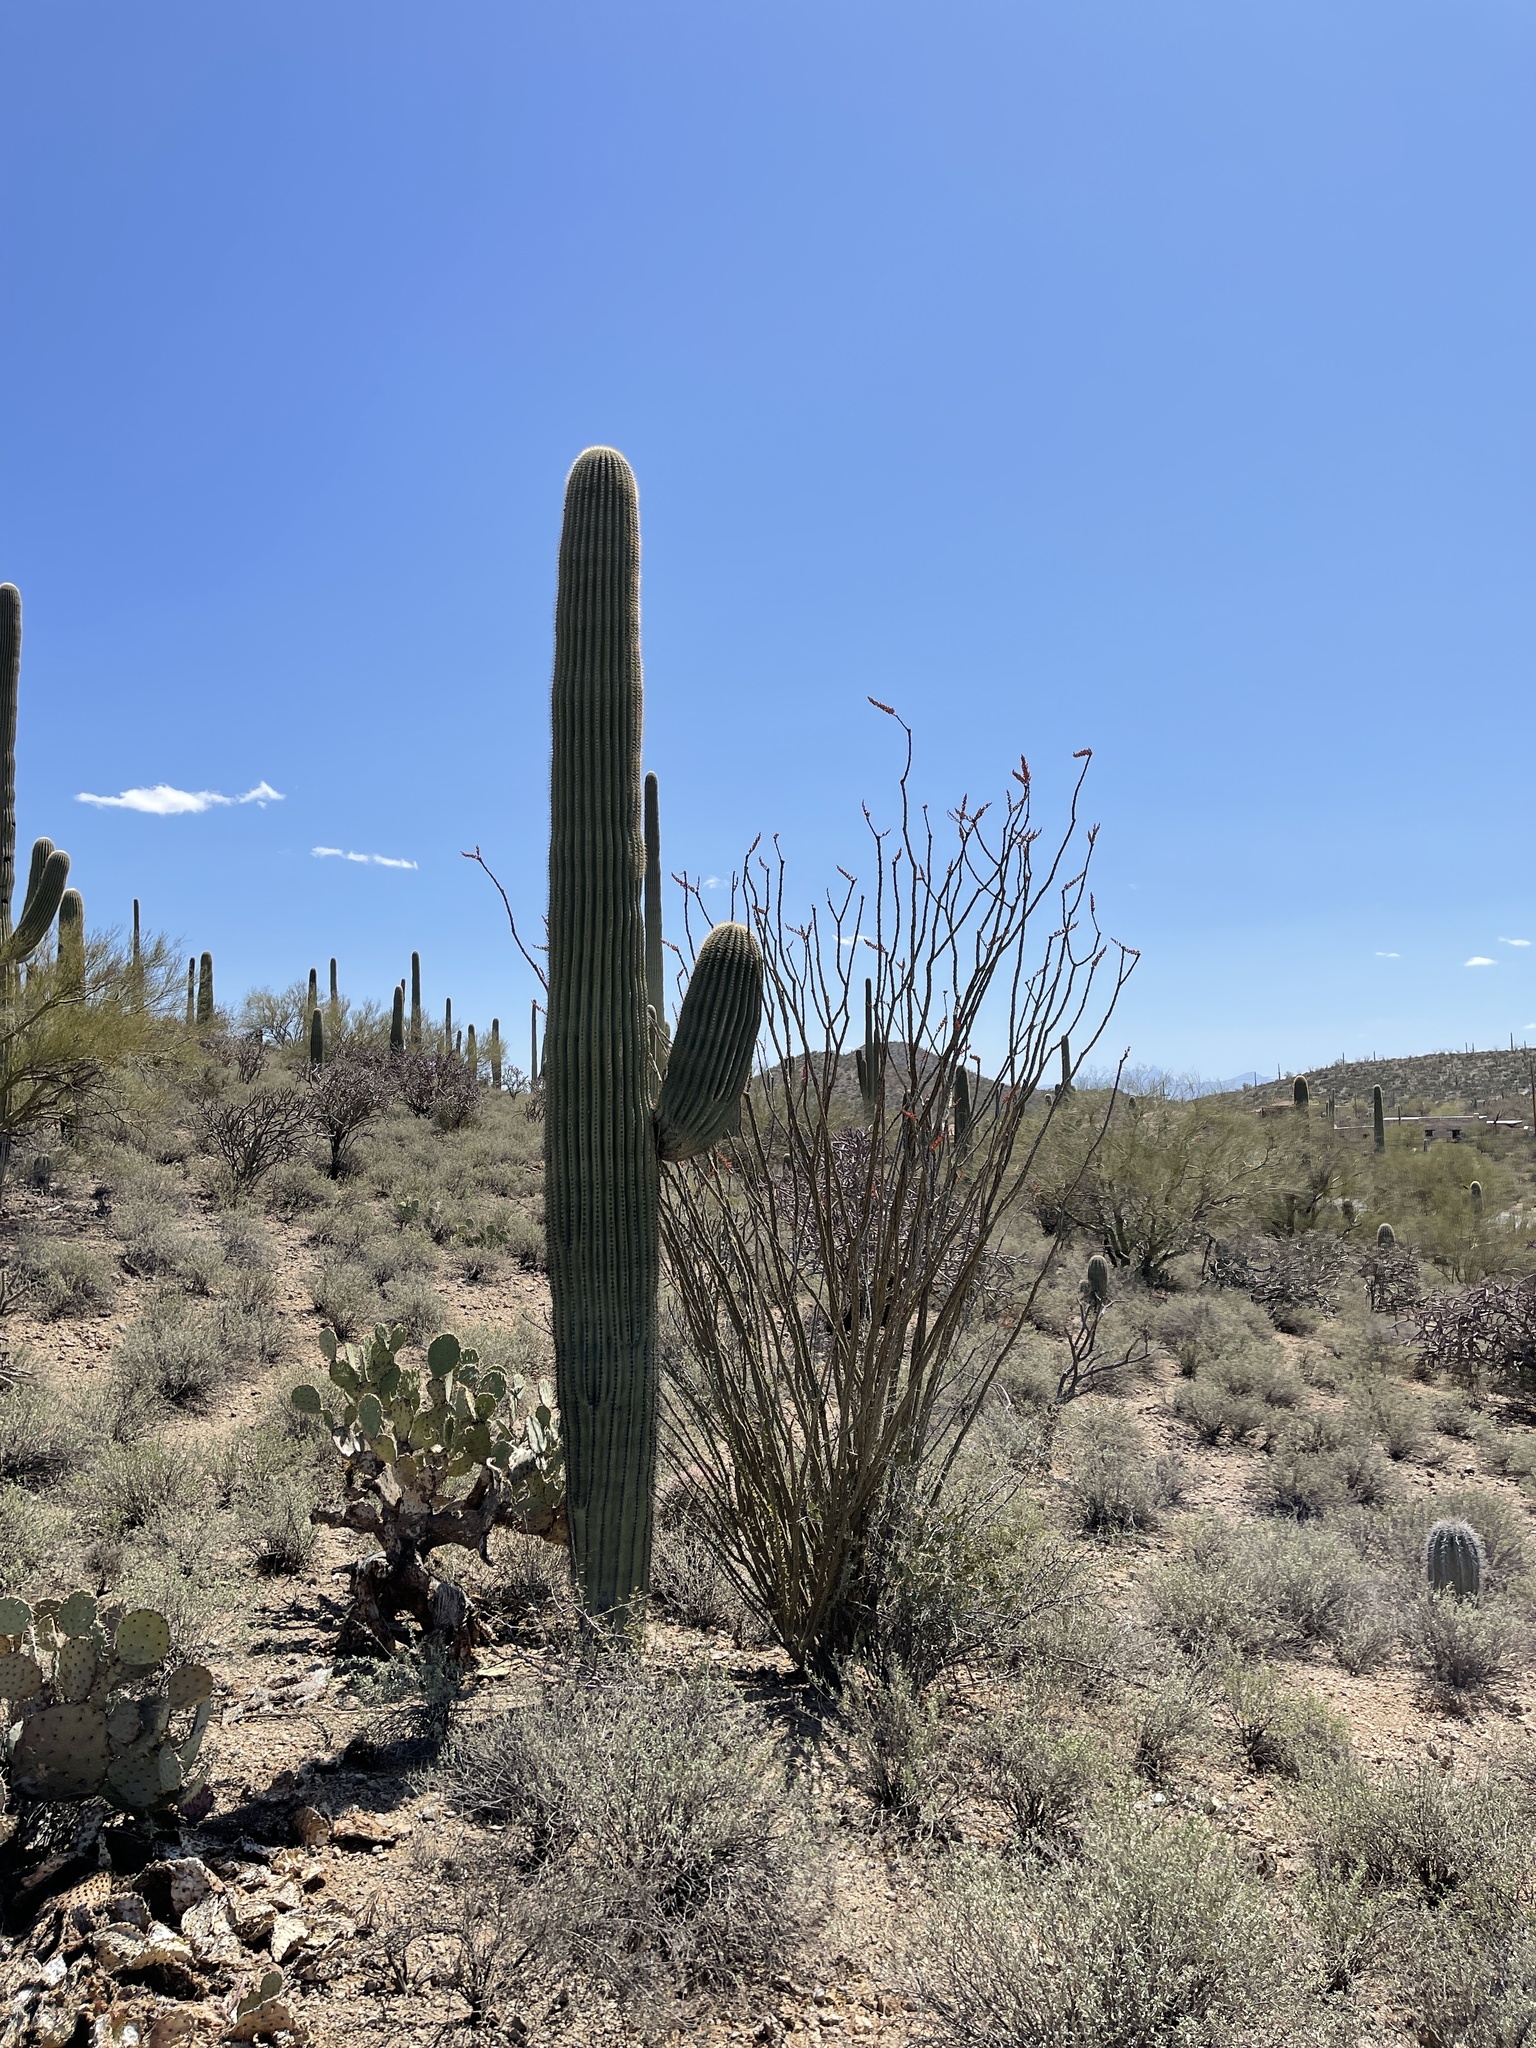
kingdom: Plantae
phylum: Tracheophyta
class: Magnoliopsida
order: Ericales
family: Fouquieriaceae
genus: Fouquieria
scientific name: Fouquieria splendens
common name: Vine-cactus
